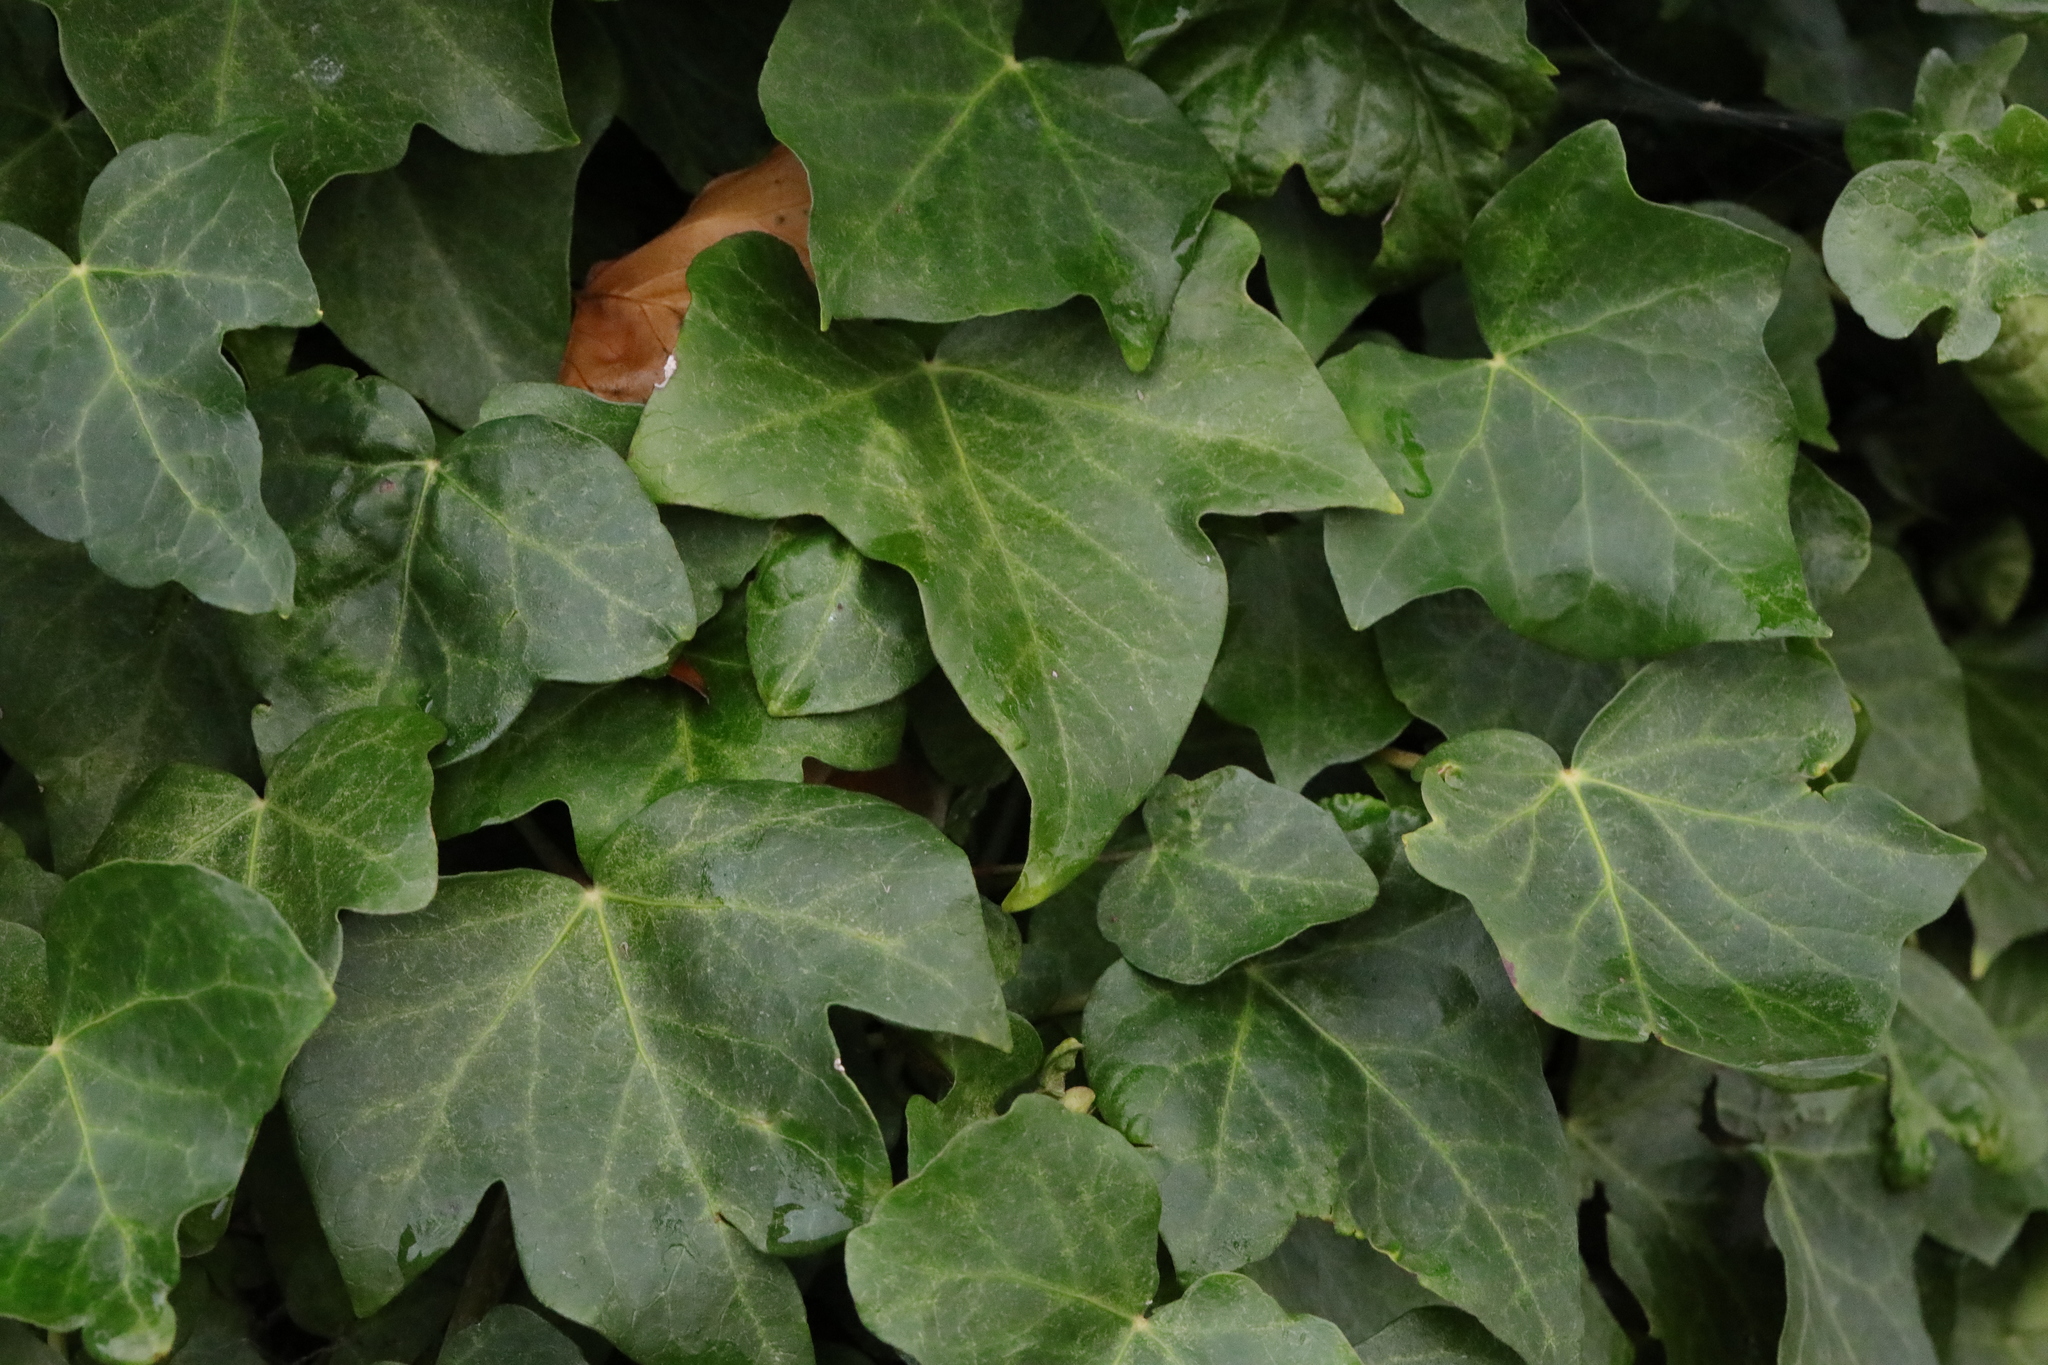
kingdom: Plantae
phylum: Tracheophyta
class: Magnoliopsida
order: Apiales
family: Araliaceae
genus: Hedera
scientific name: Hedera helix
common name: Ivy
